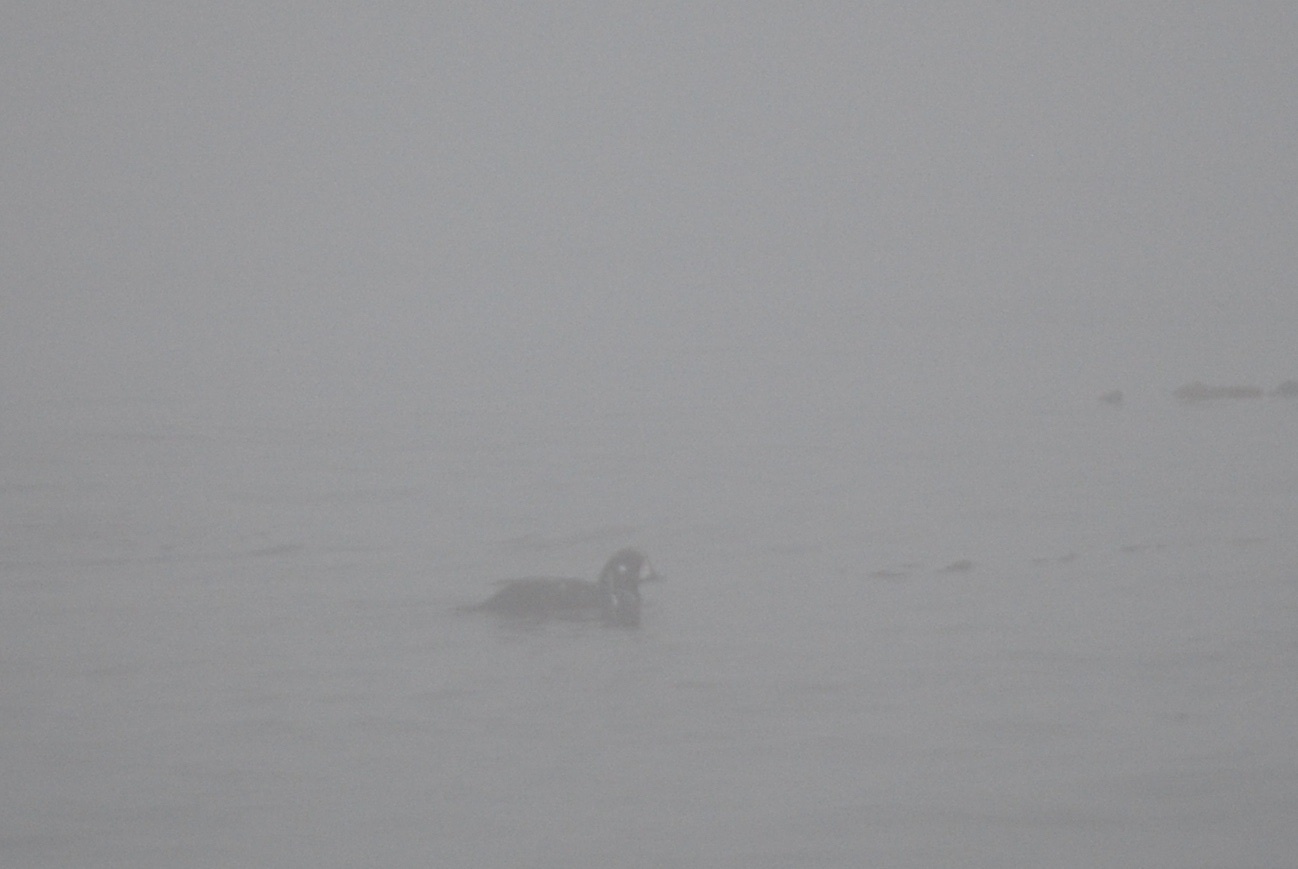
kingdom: Animalia
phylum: Chordata
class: Aves
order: Anseriformes
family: Anatidae
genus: Histrionicus
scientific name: Histrionicus histrionicus
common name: Harlequin duck
